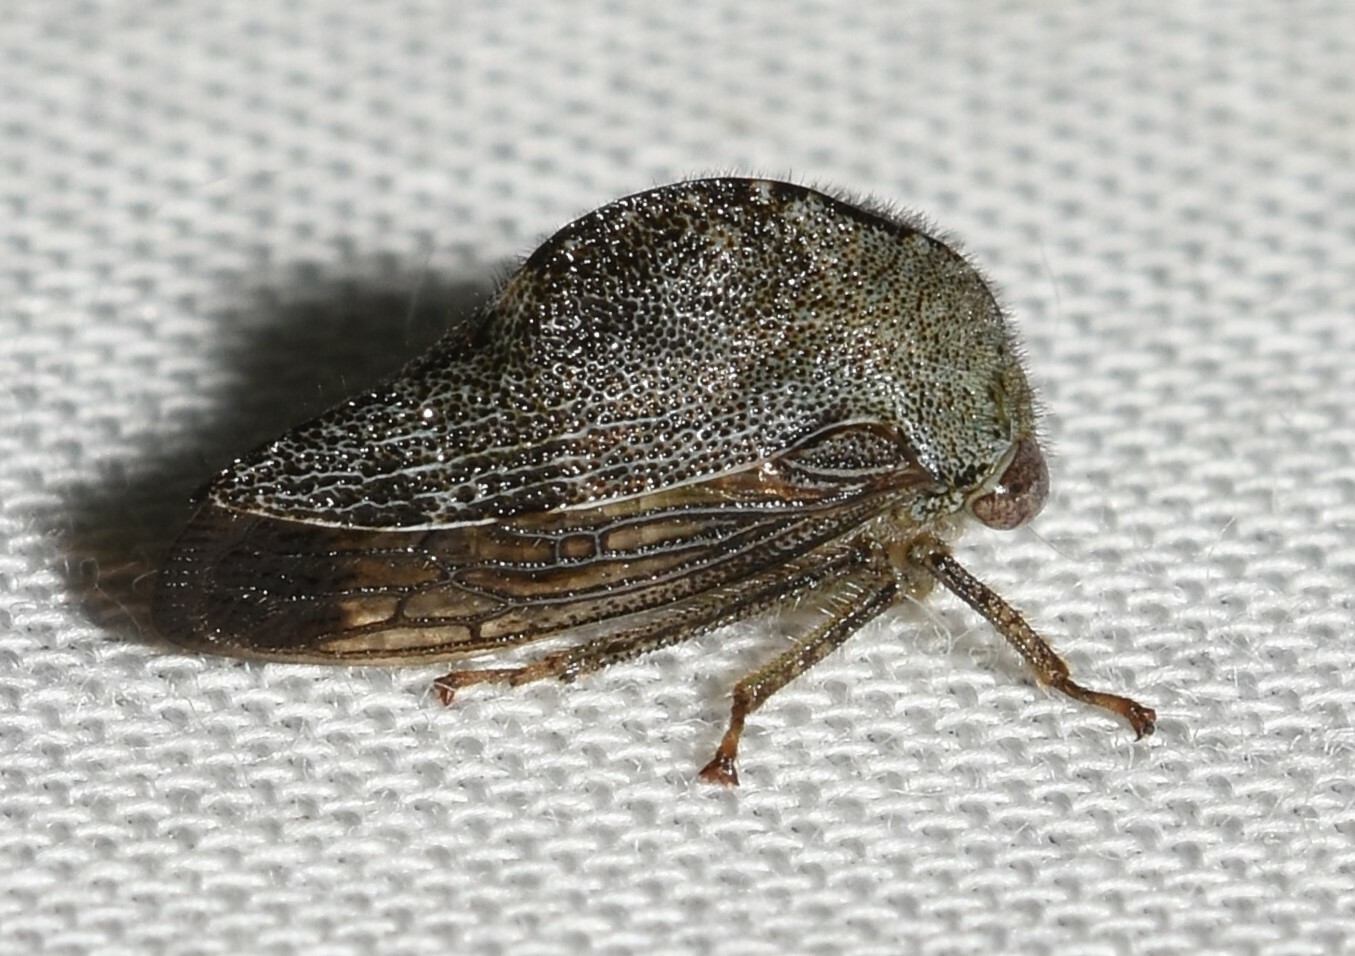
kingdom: Animalia
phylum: Arthropoda
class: Insecta
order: Hemiptera
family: Membracidae
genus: Telamona
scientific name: Telamona reclivata
